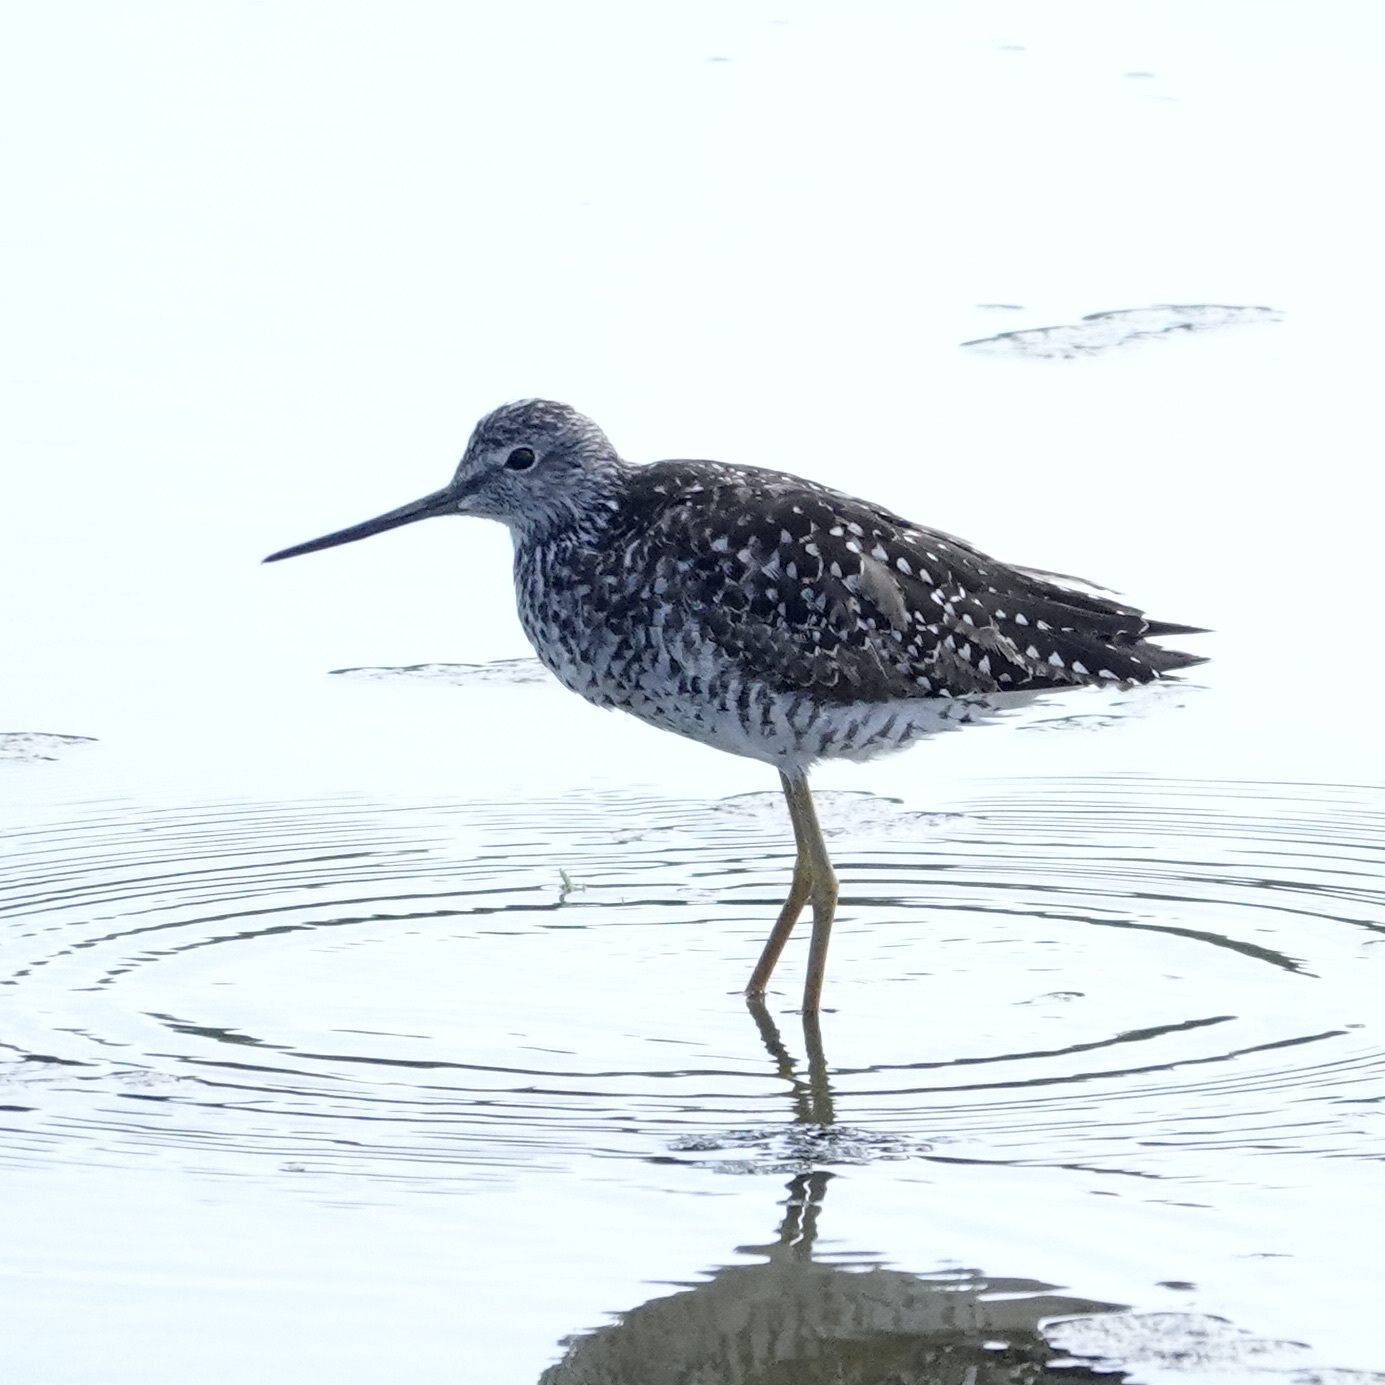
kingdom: Animalia
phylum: Chordata
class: Aves
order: Charadriiformes
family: Scolopacidae
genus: Tringa
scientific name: Tringa melanoleuca
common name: Greater yellowlegs
